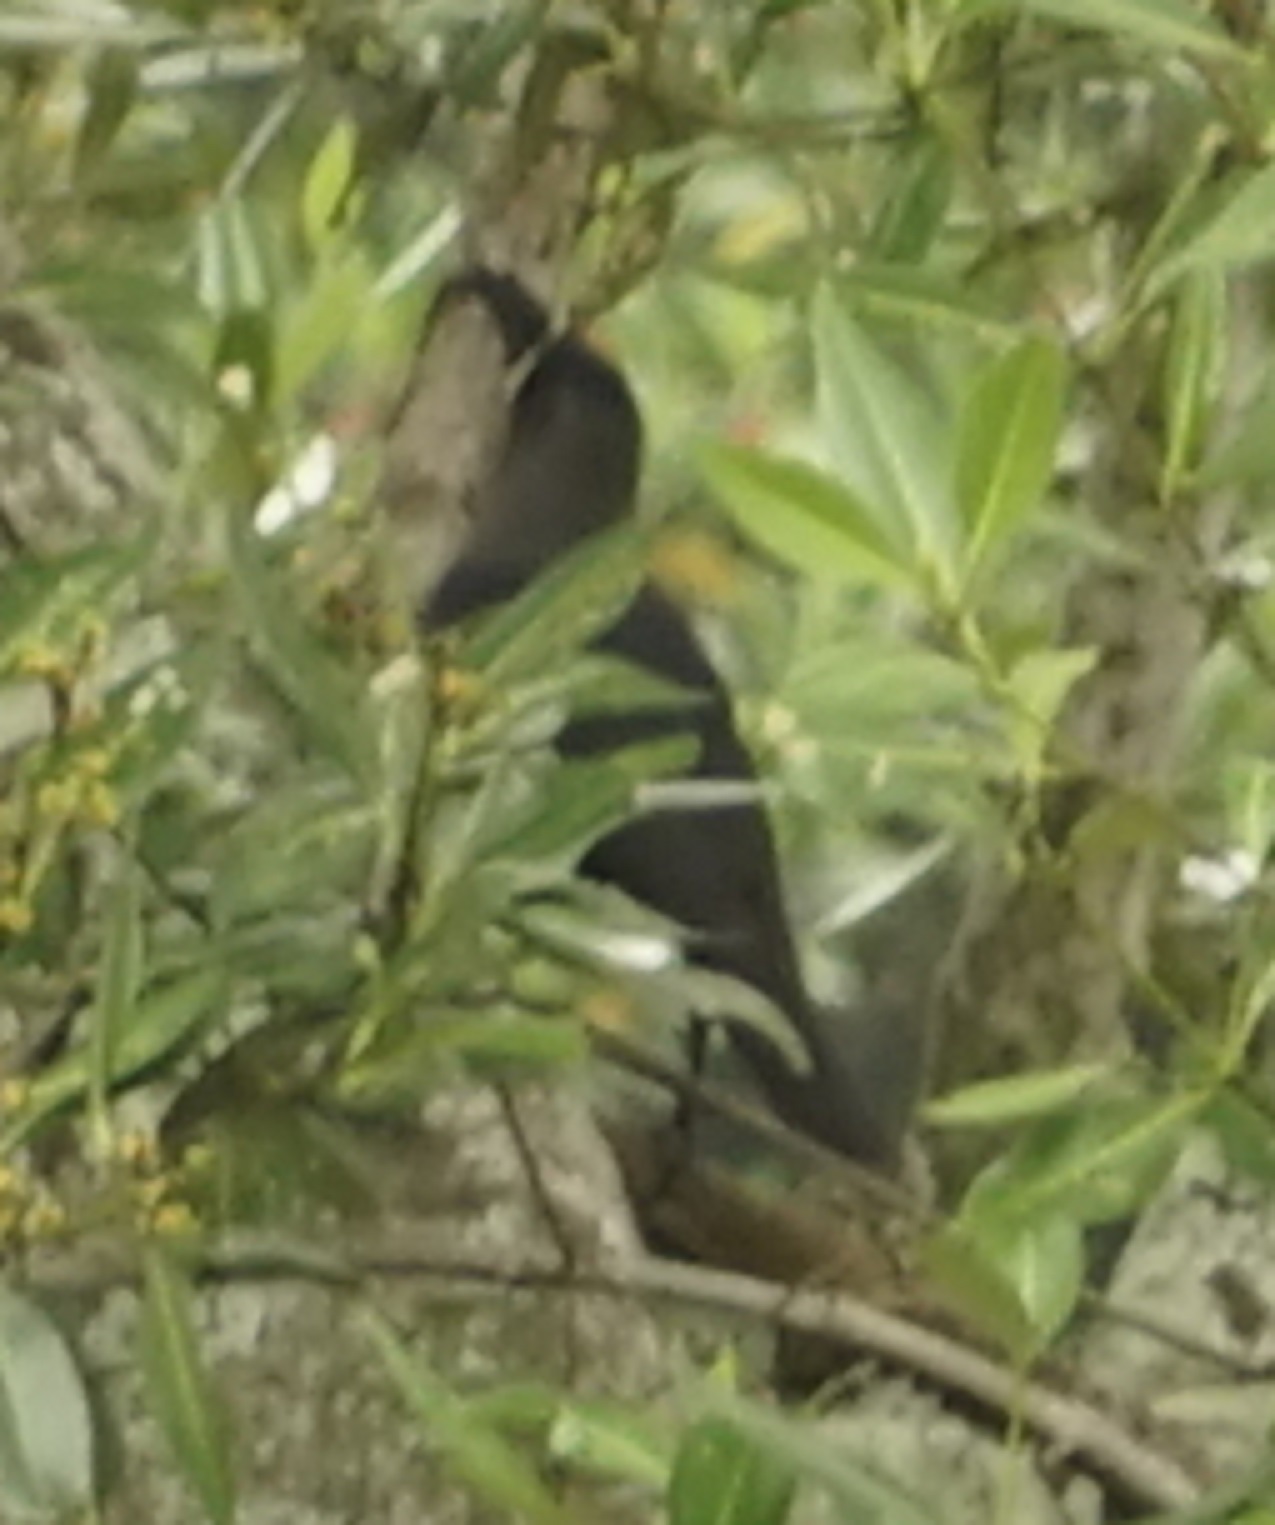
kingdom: Animalia
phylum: Chordata
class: Aves
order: Passeriformes
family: Corvidae
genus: Corvus
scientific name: Corvus splendens
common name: House crow
